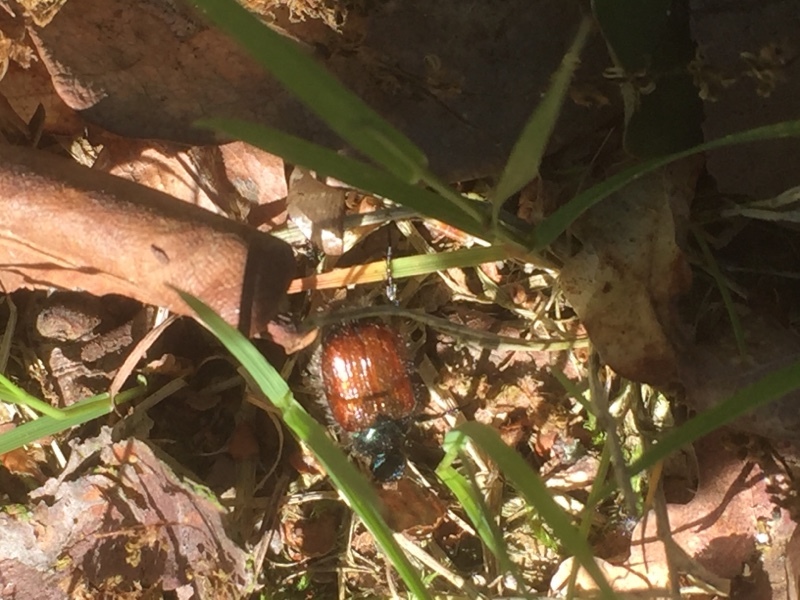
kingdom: Animalia
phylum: Arthropoda
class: Insecta
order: Coleoptera
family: Scarabaeidae
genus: Phyllopertha
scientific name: Phyllopertha horticola
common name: Garden chafer
